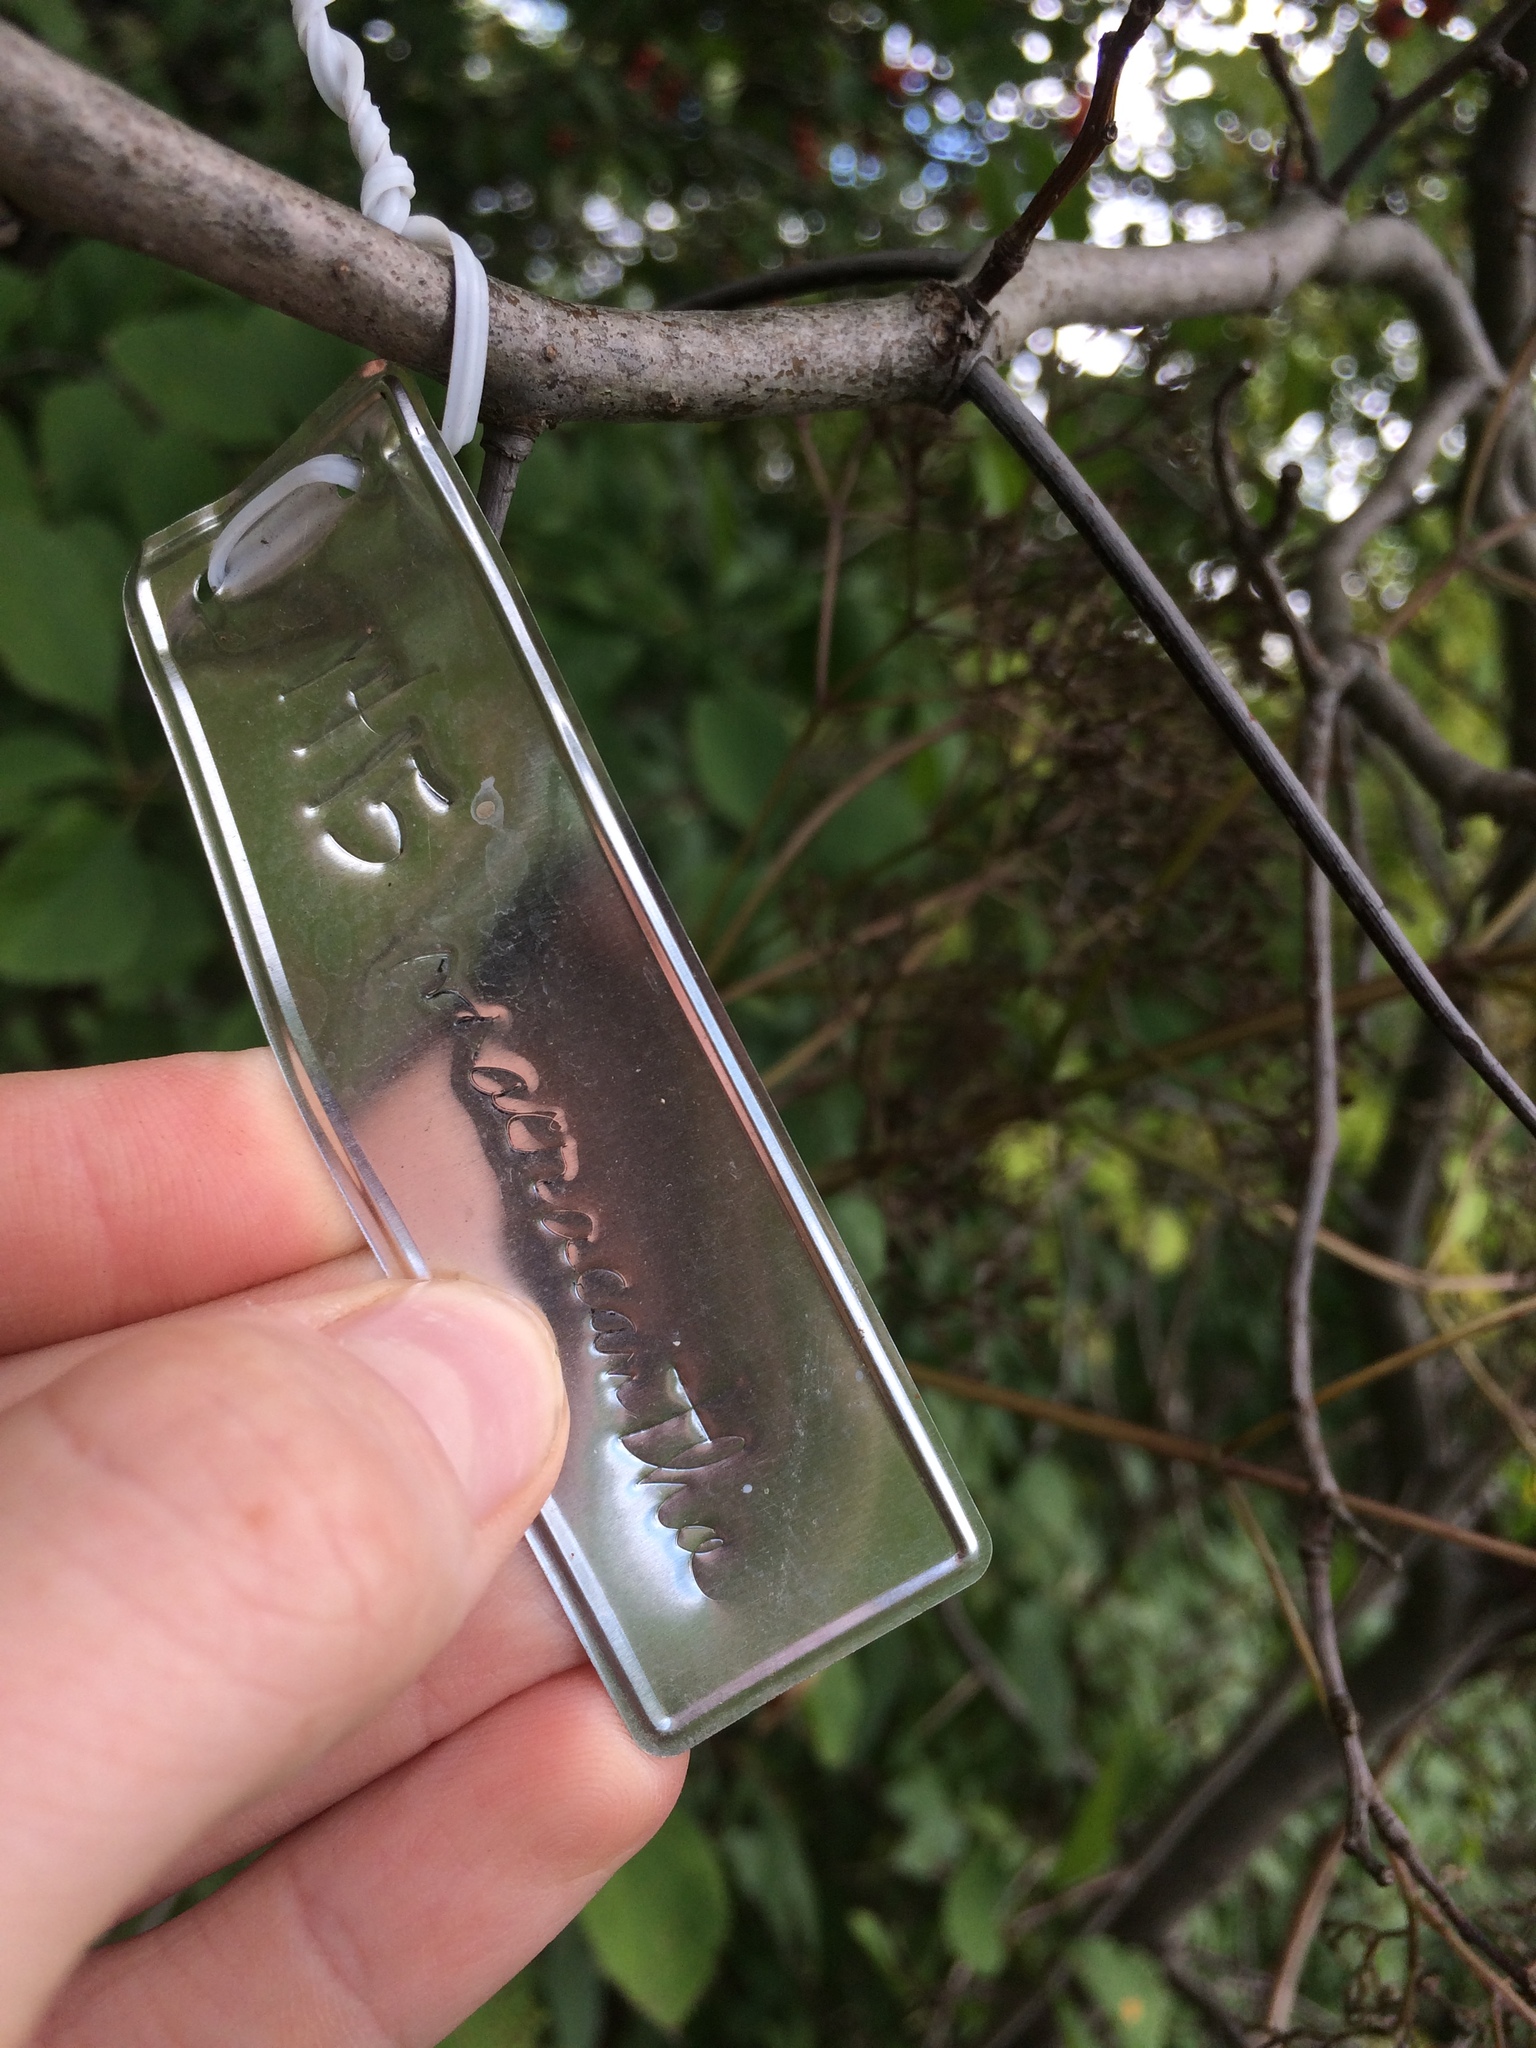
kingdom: Plantae
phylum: Tracheophyta
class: Magnoliopsida
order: Rosales
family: Rosaceae
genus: Crataegus
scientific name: Crataegus macracantha
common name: Large-thorn hawthorn
